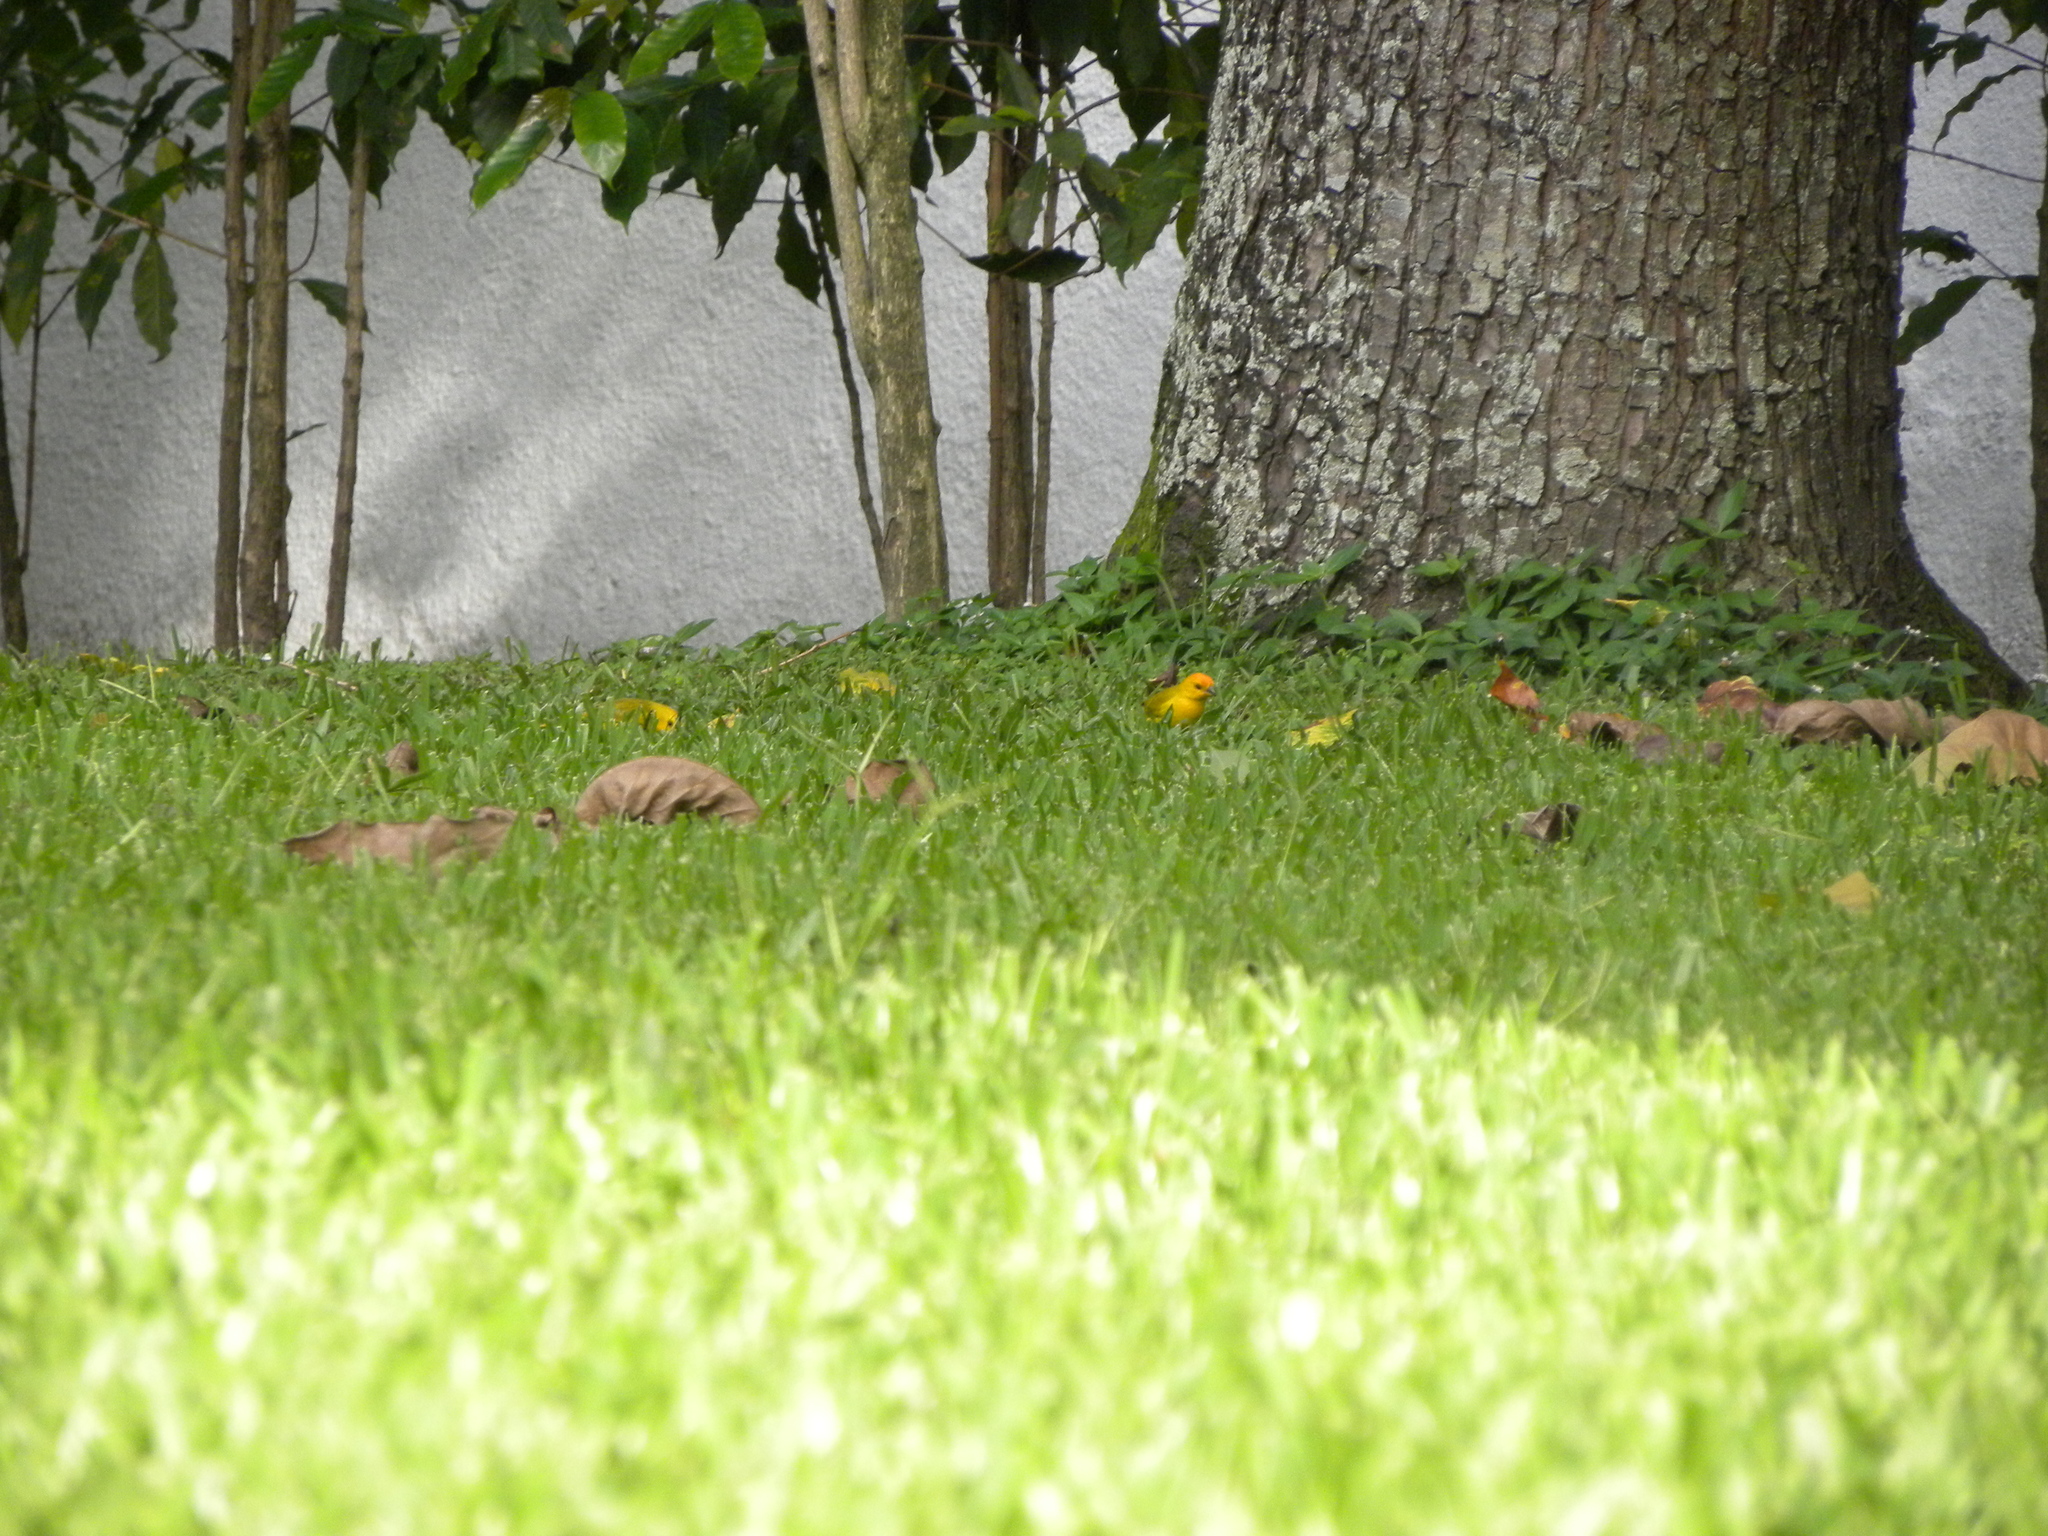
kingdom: Animalia
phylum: Chordata
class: Aves
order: Passeriformes
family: Thraupidae
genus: Sicalis
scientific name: Sicalis flaveola
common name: Saffron finch
